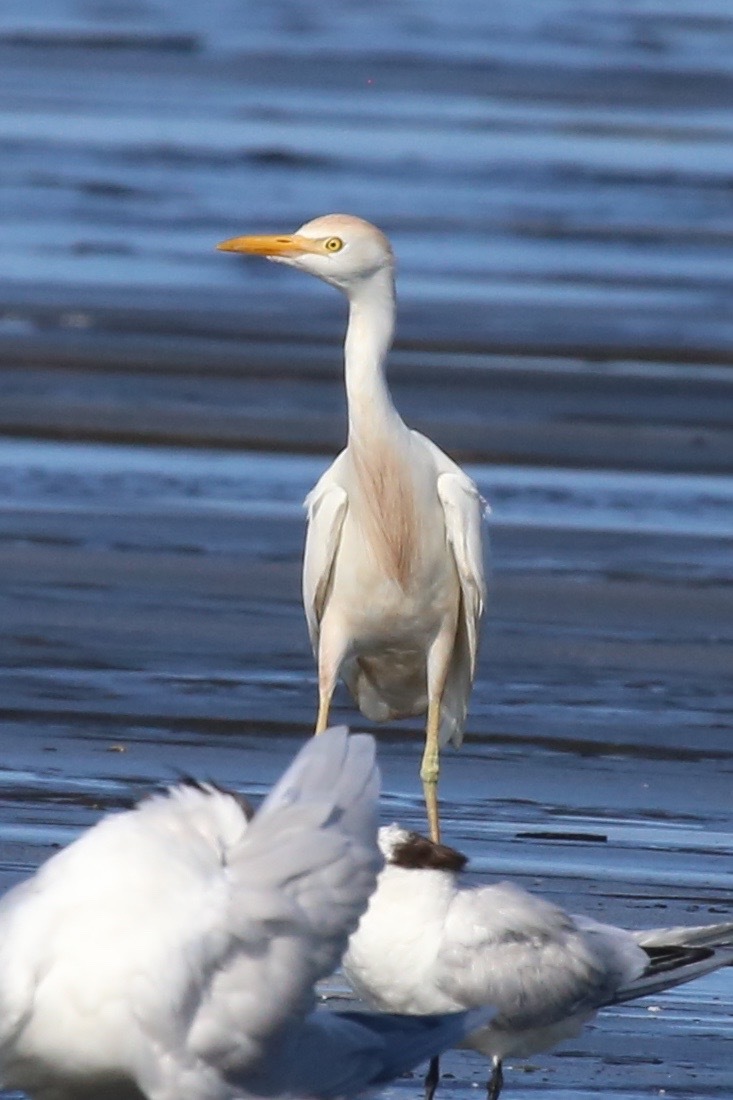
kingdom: Animalia
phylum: Chordata
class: Aves
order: Pelecaniformes
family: Ardeidae
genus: Bubulcus
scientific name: Bubulcus ibis
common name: Cattle egret
